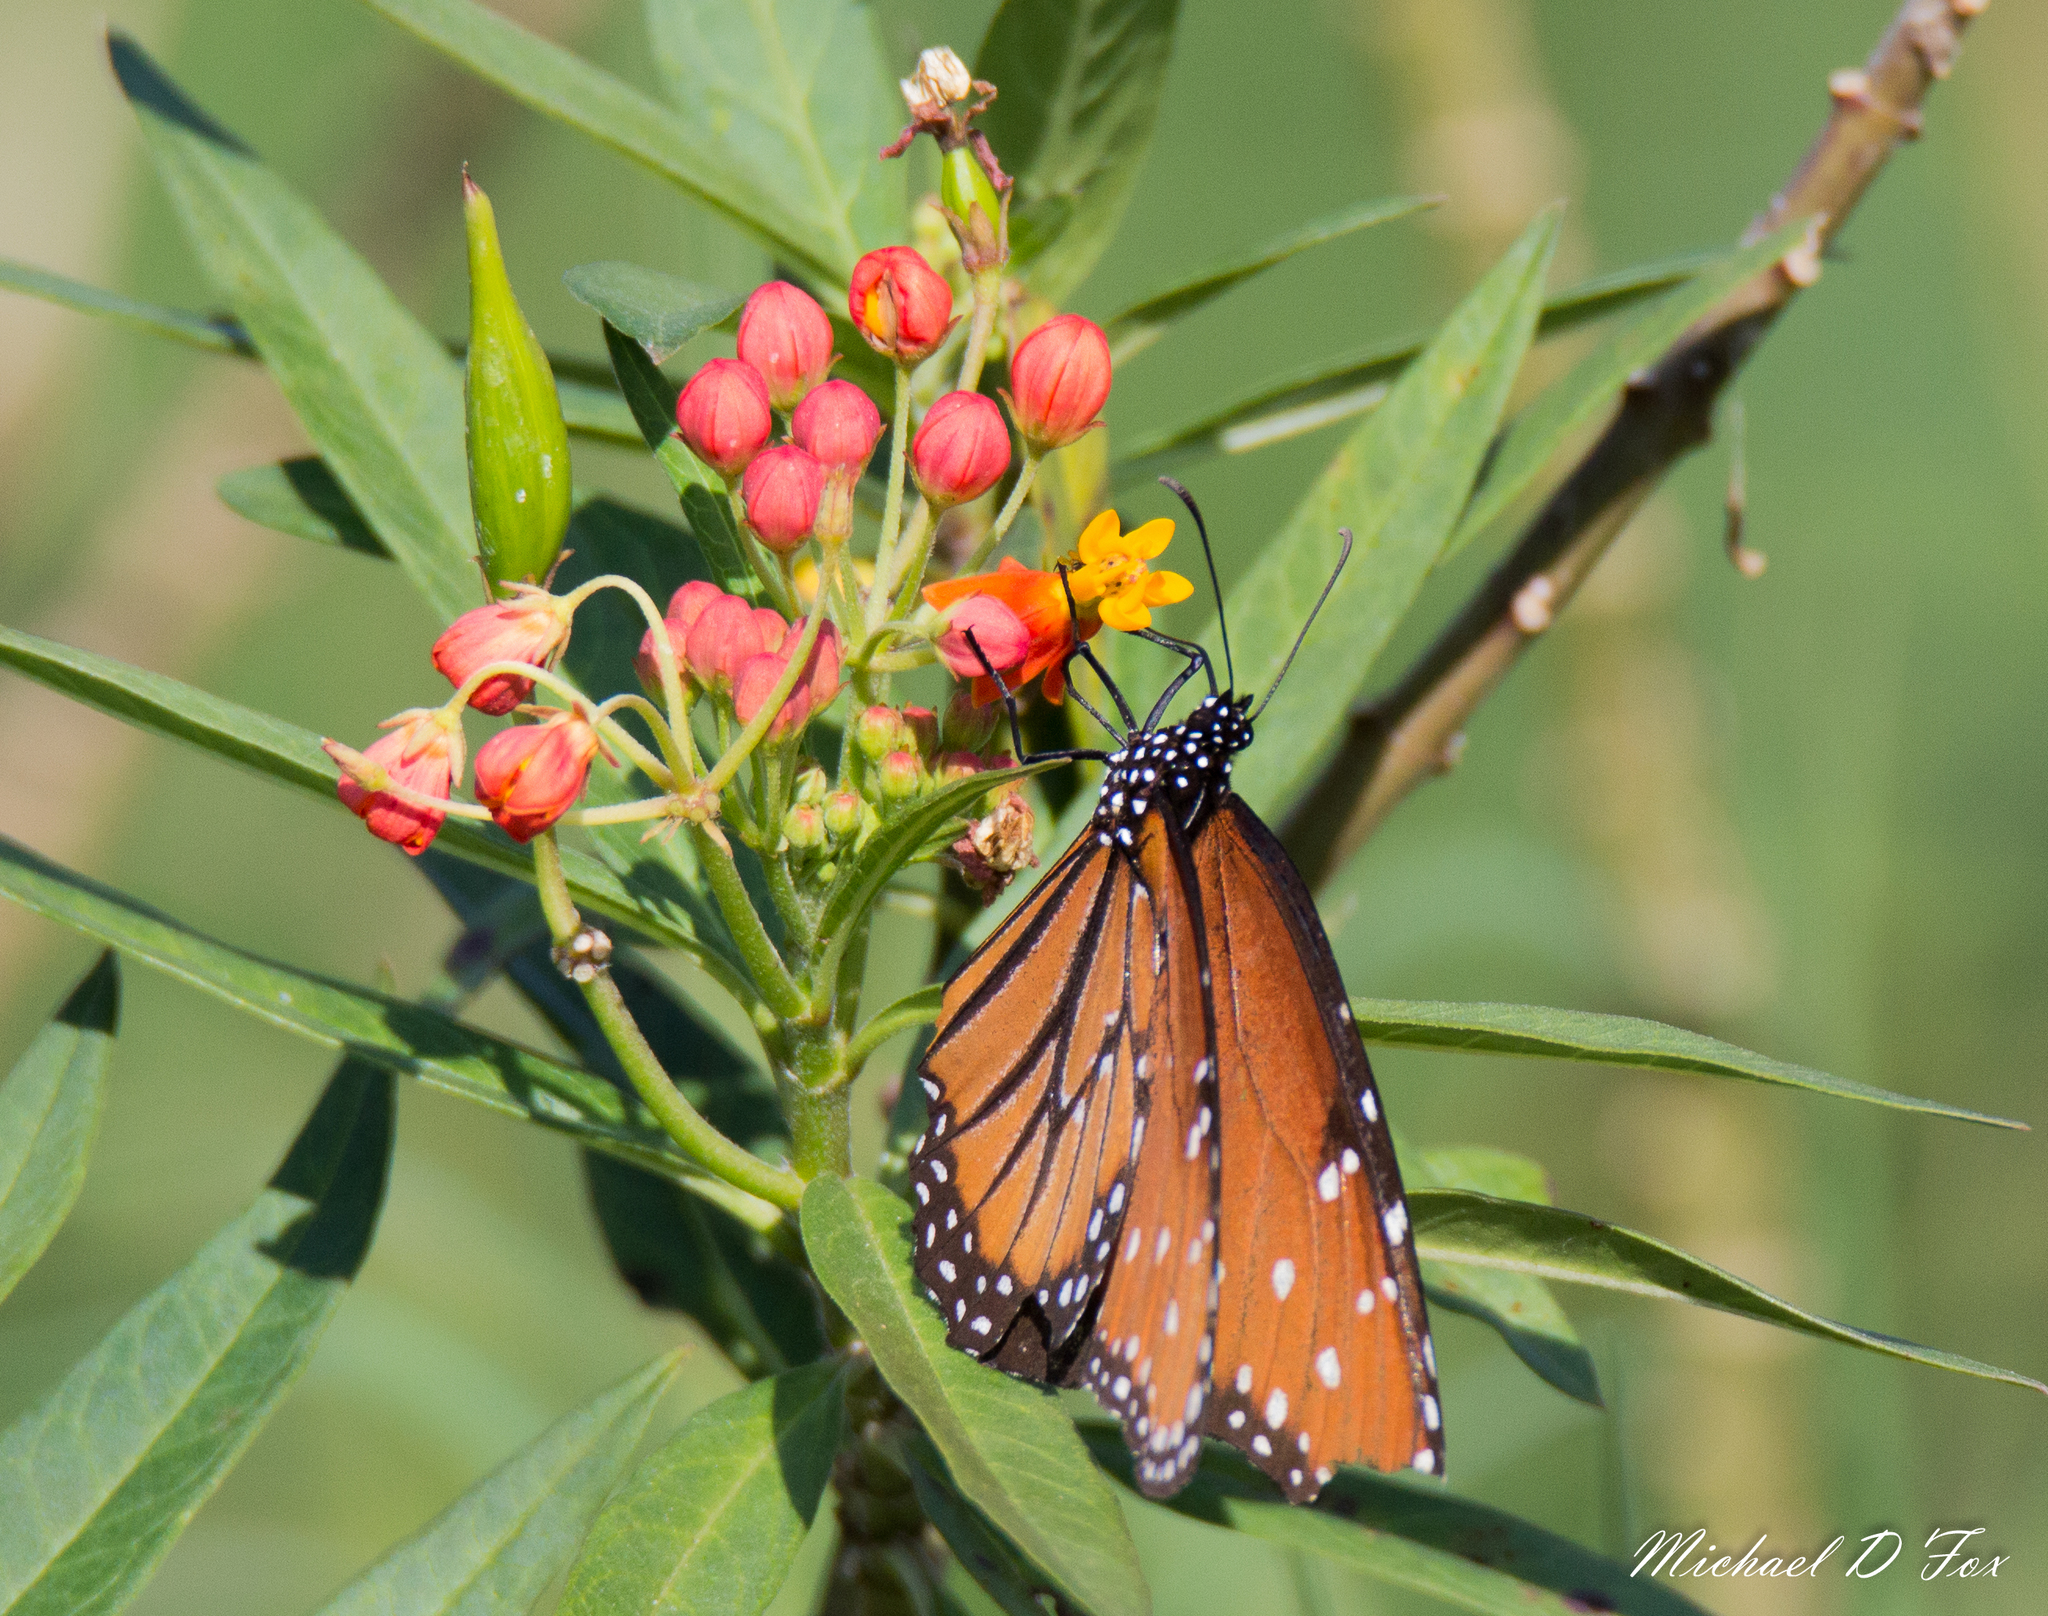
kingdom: Animalia
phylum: Arthropoda
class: Insecta
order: Lepidoptera
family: Nymphalidae
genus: Danaus
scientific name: Danaus gilippus
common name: Queen
